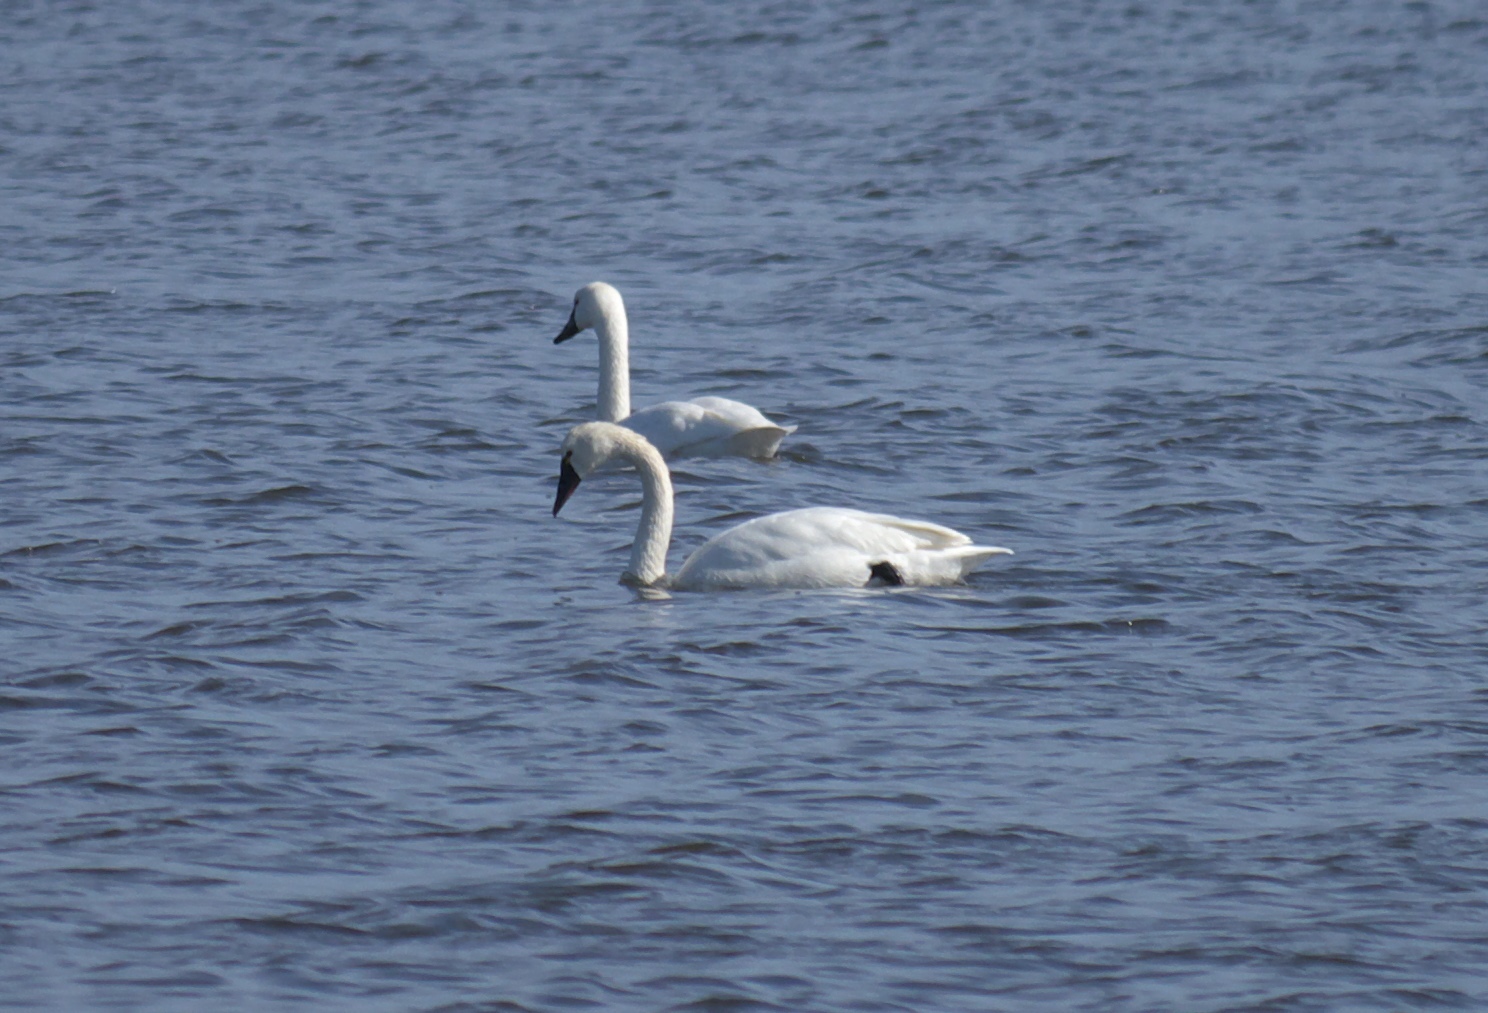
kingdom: Animalia
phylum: Chordata
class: Aves
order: Anseriformes
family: Anatidae
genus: Cygnus
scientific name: Cygnus columbianus
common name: Tundra swan
